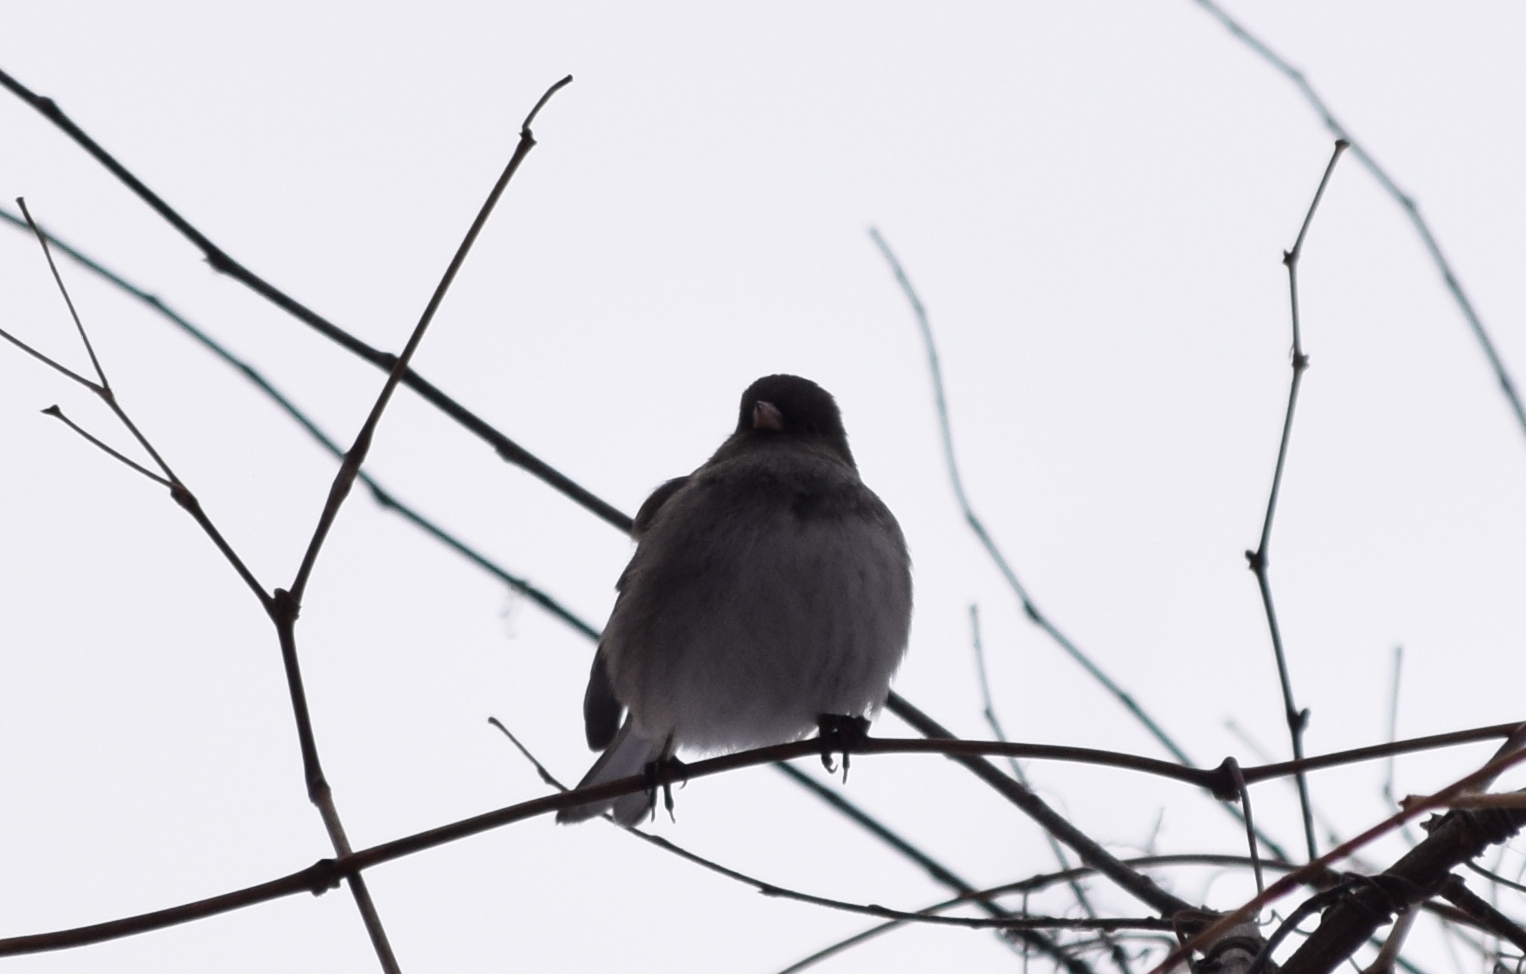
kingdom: Animalia
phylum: Chordata
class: Aves
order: Passeriformes
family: Passerellidae
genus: Junco
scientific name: Junco hyemalis
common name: Dark-eyed junco
